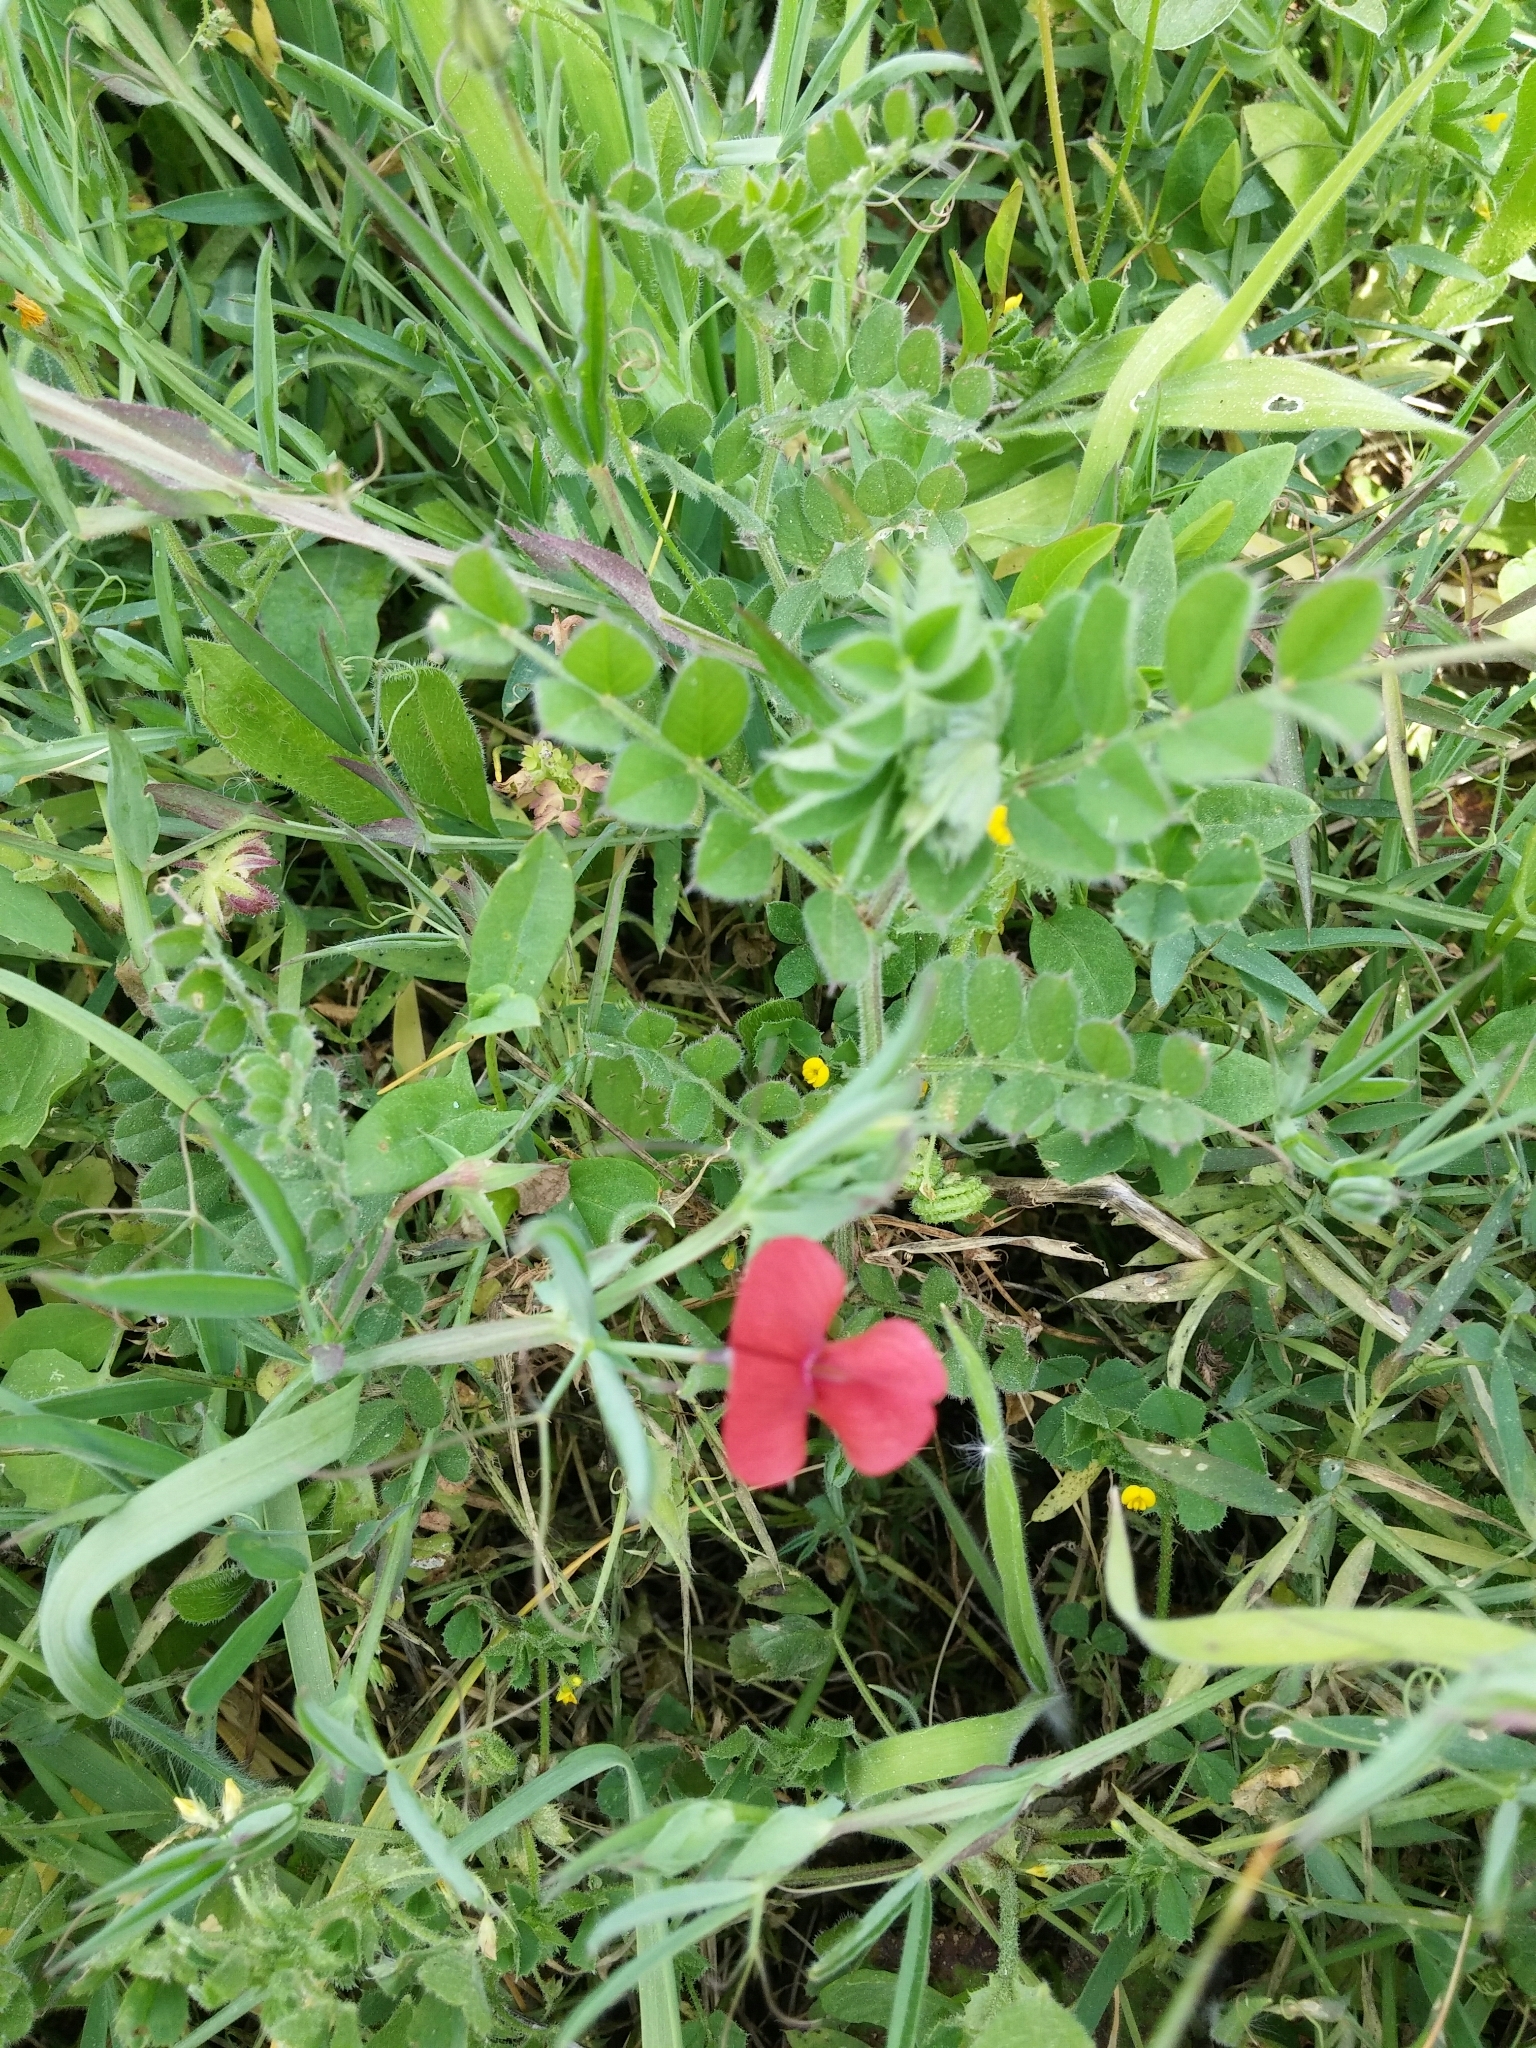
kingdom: Plantae
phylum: Tracheophyta
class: Magnoliopsida
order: Fabales
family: Fabaceae
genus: Lathyrus
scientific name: Lathyrus cicera
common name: Red vetchling
